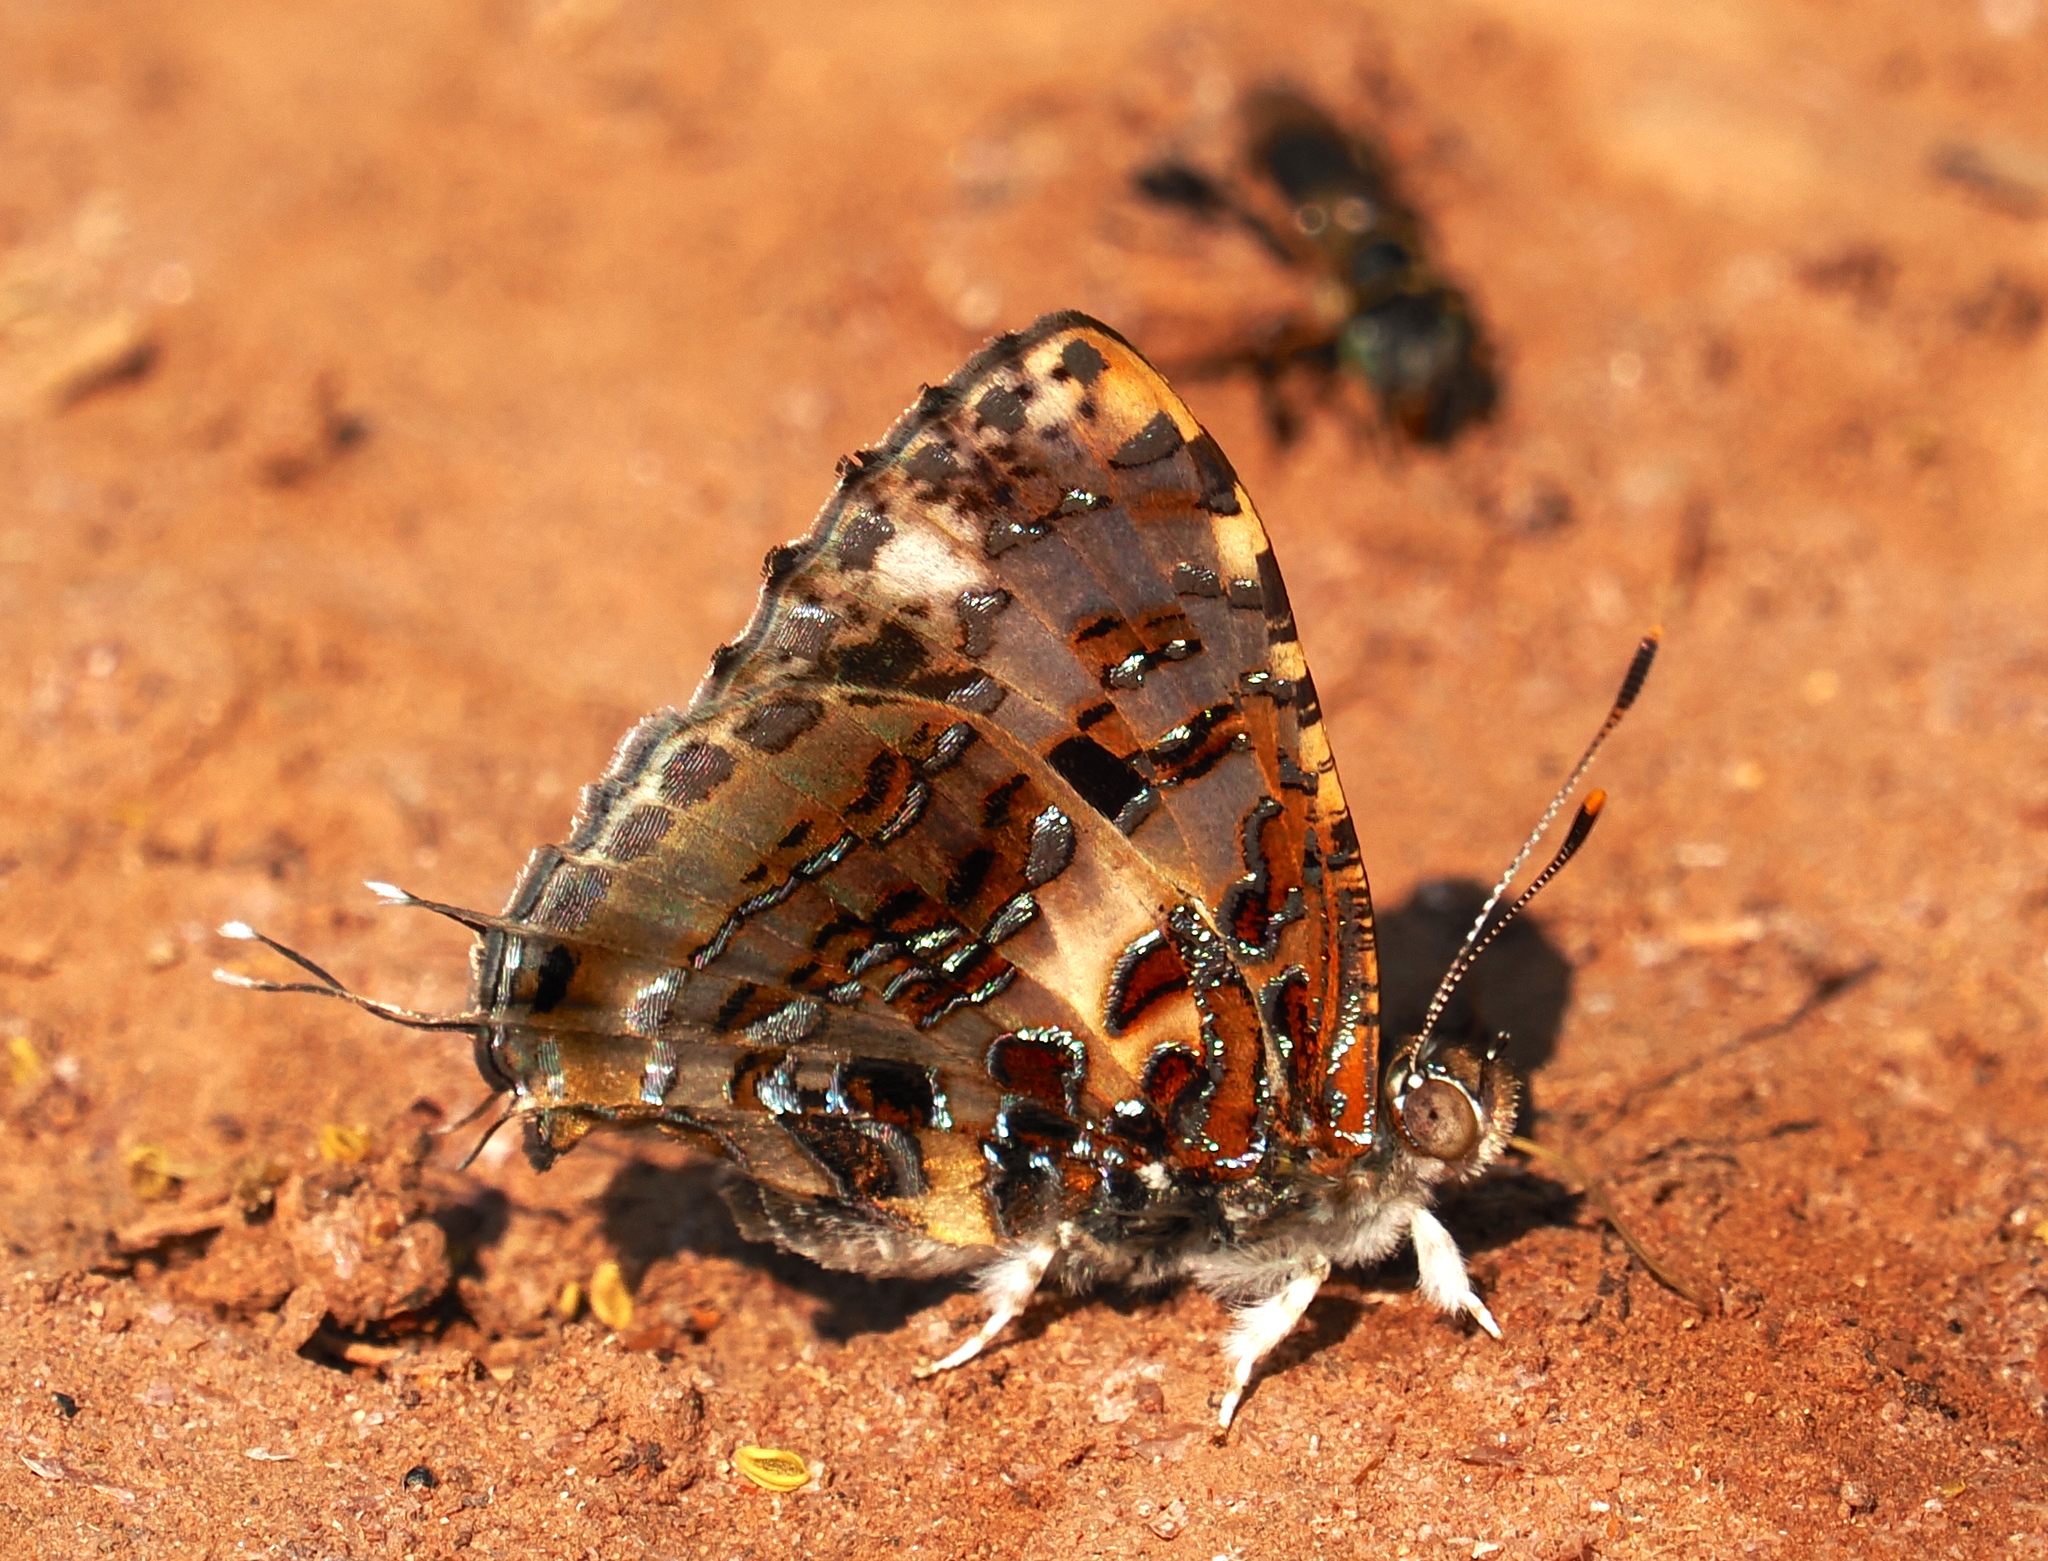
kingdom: Animalia
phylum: Arthropoda
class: Insecta
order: Lepidoptera
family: Lycaenidae
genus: Catapaecilma
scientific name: Catapaecilma major
